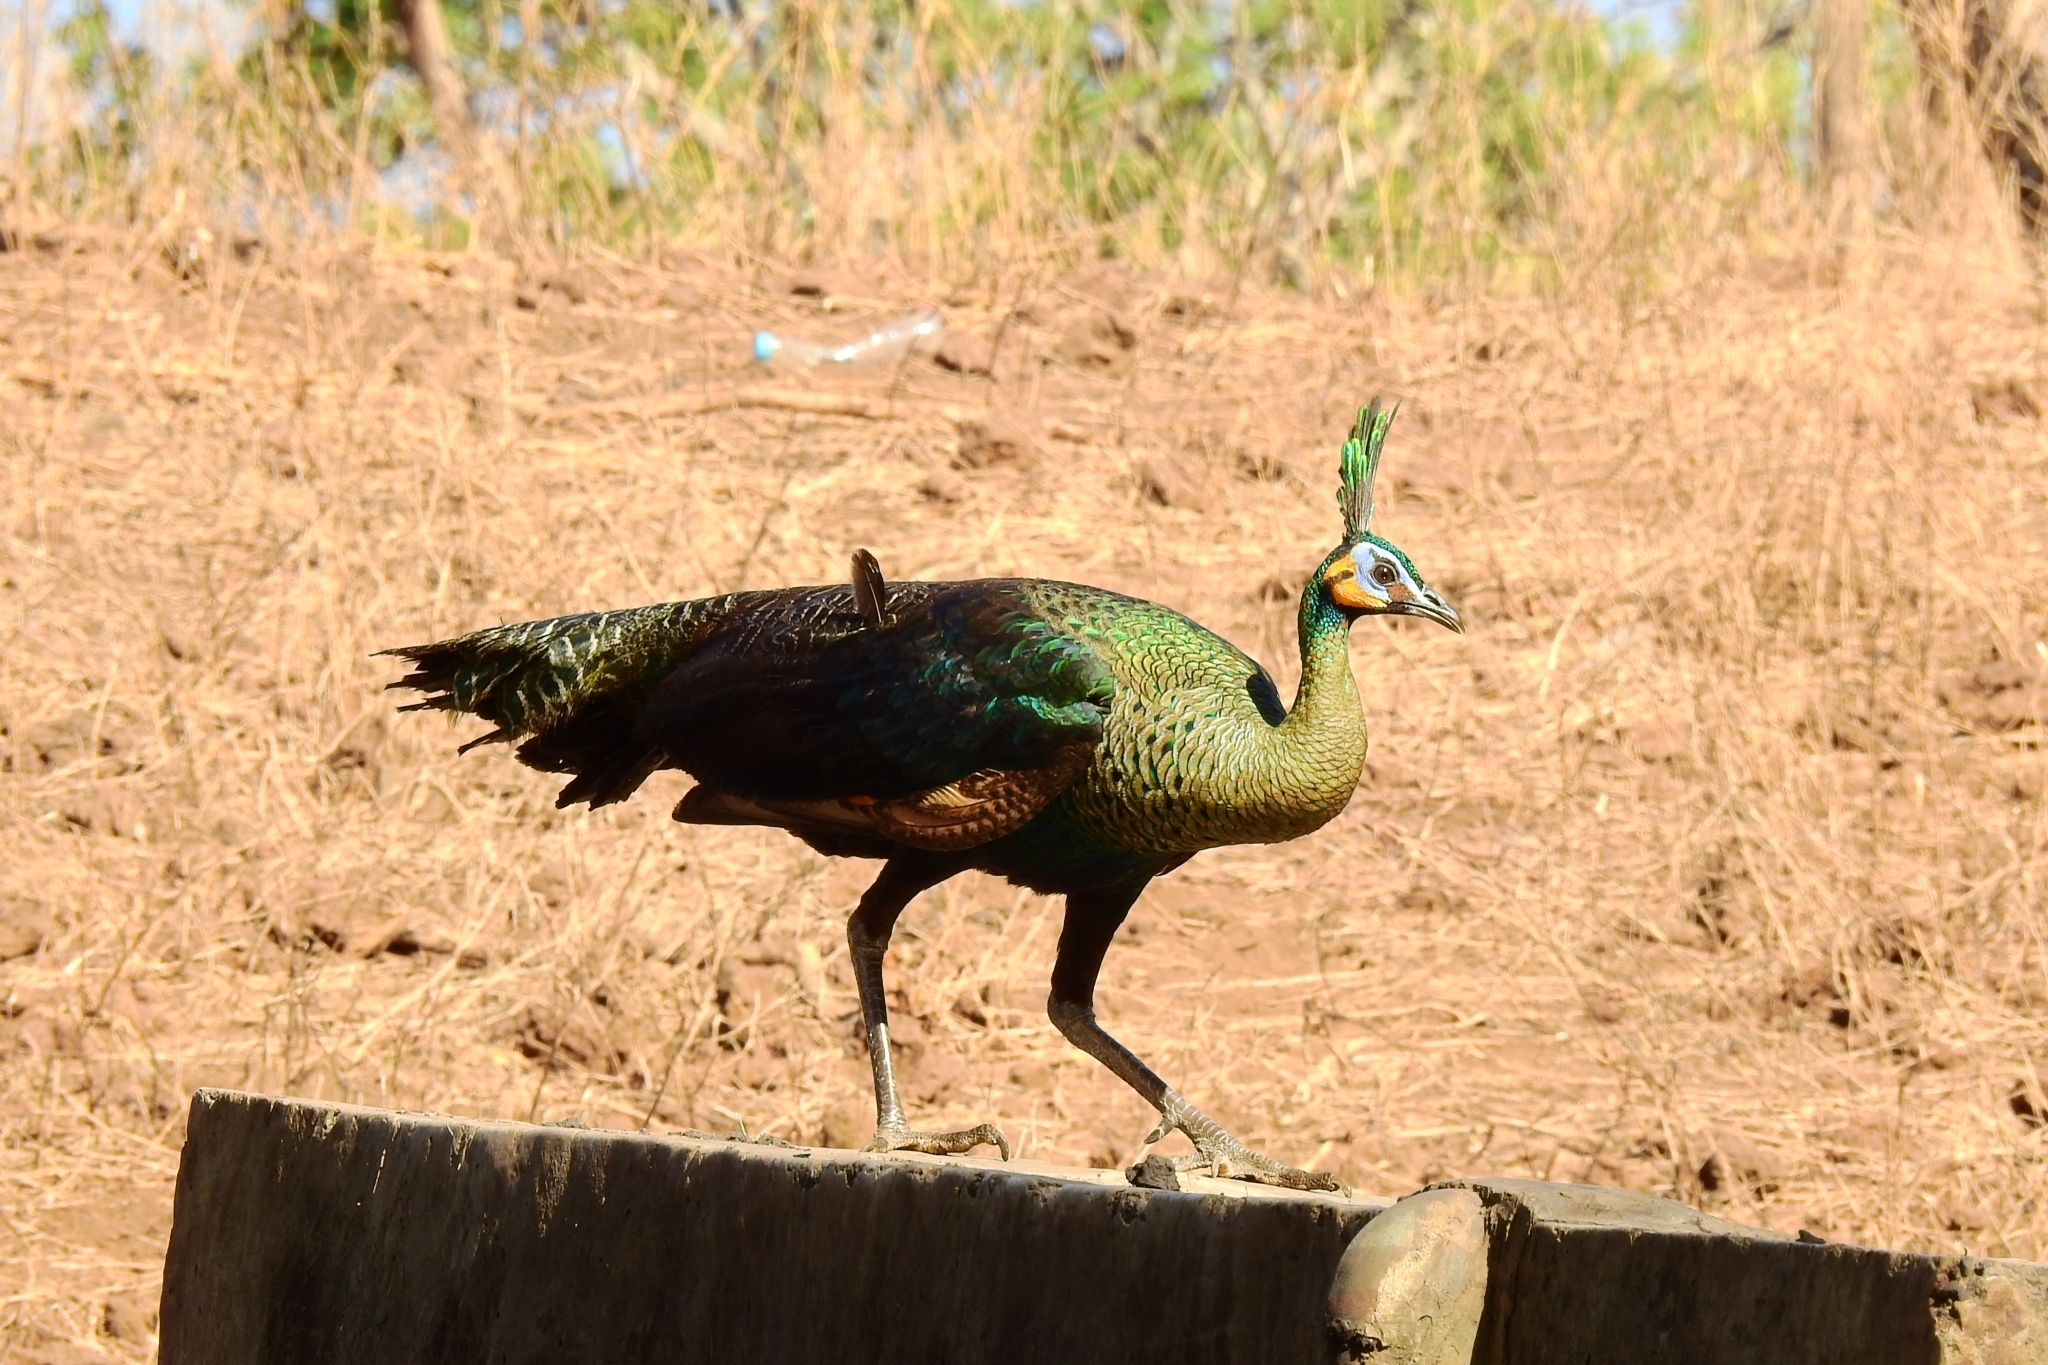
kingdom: Animalia
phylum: Chordata
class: Aves
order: Galliformes
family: Phasianidae
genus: Pavo
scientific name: Pavo muticus
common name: Green peafowl
